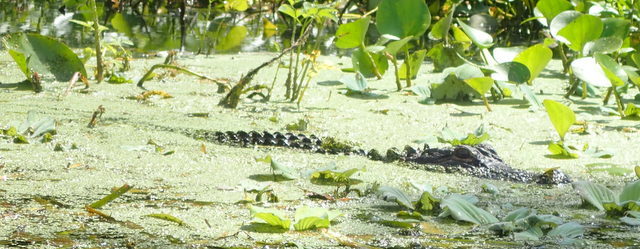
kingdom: Animalia
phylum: Chordata
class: Crocodylia
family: Alligatoridae
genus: Alligator
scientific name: Alligator mississippiensis
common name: American alligator
